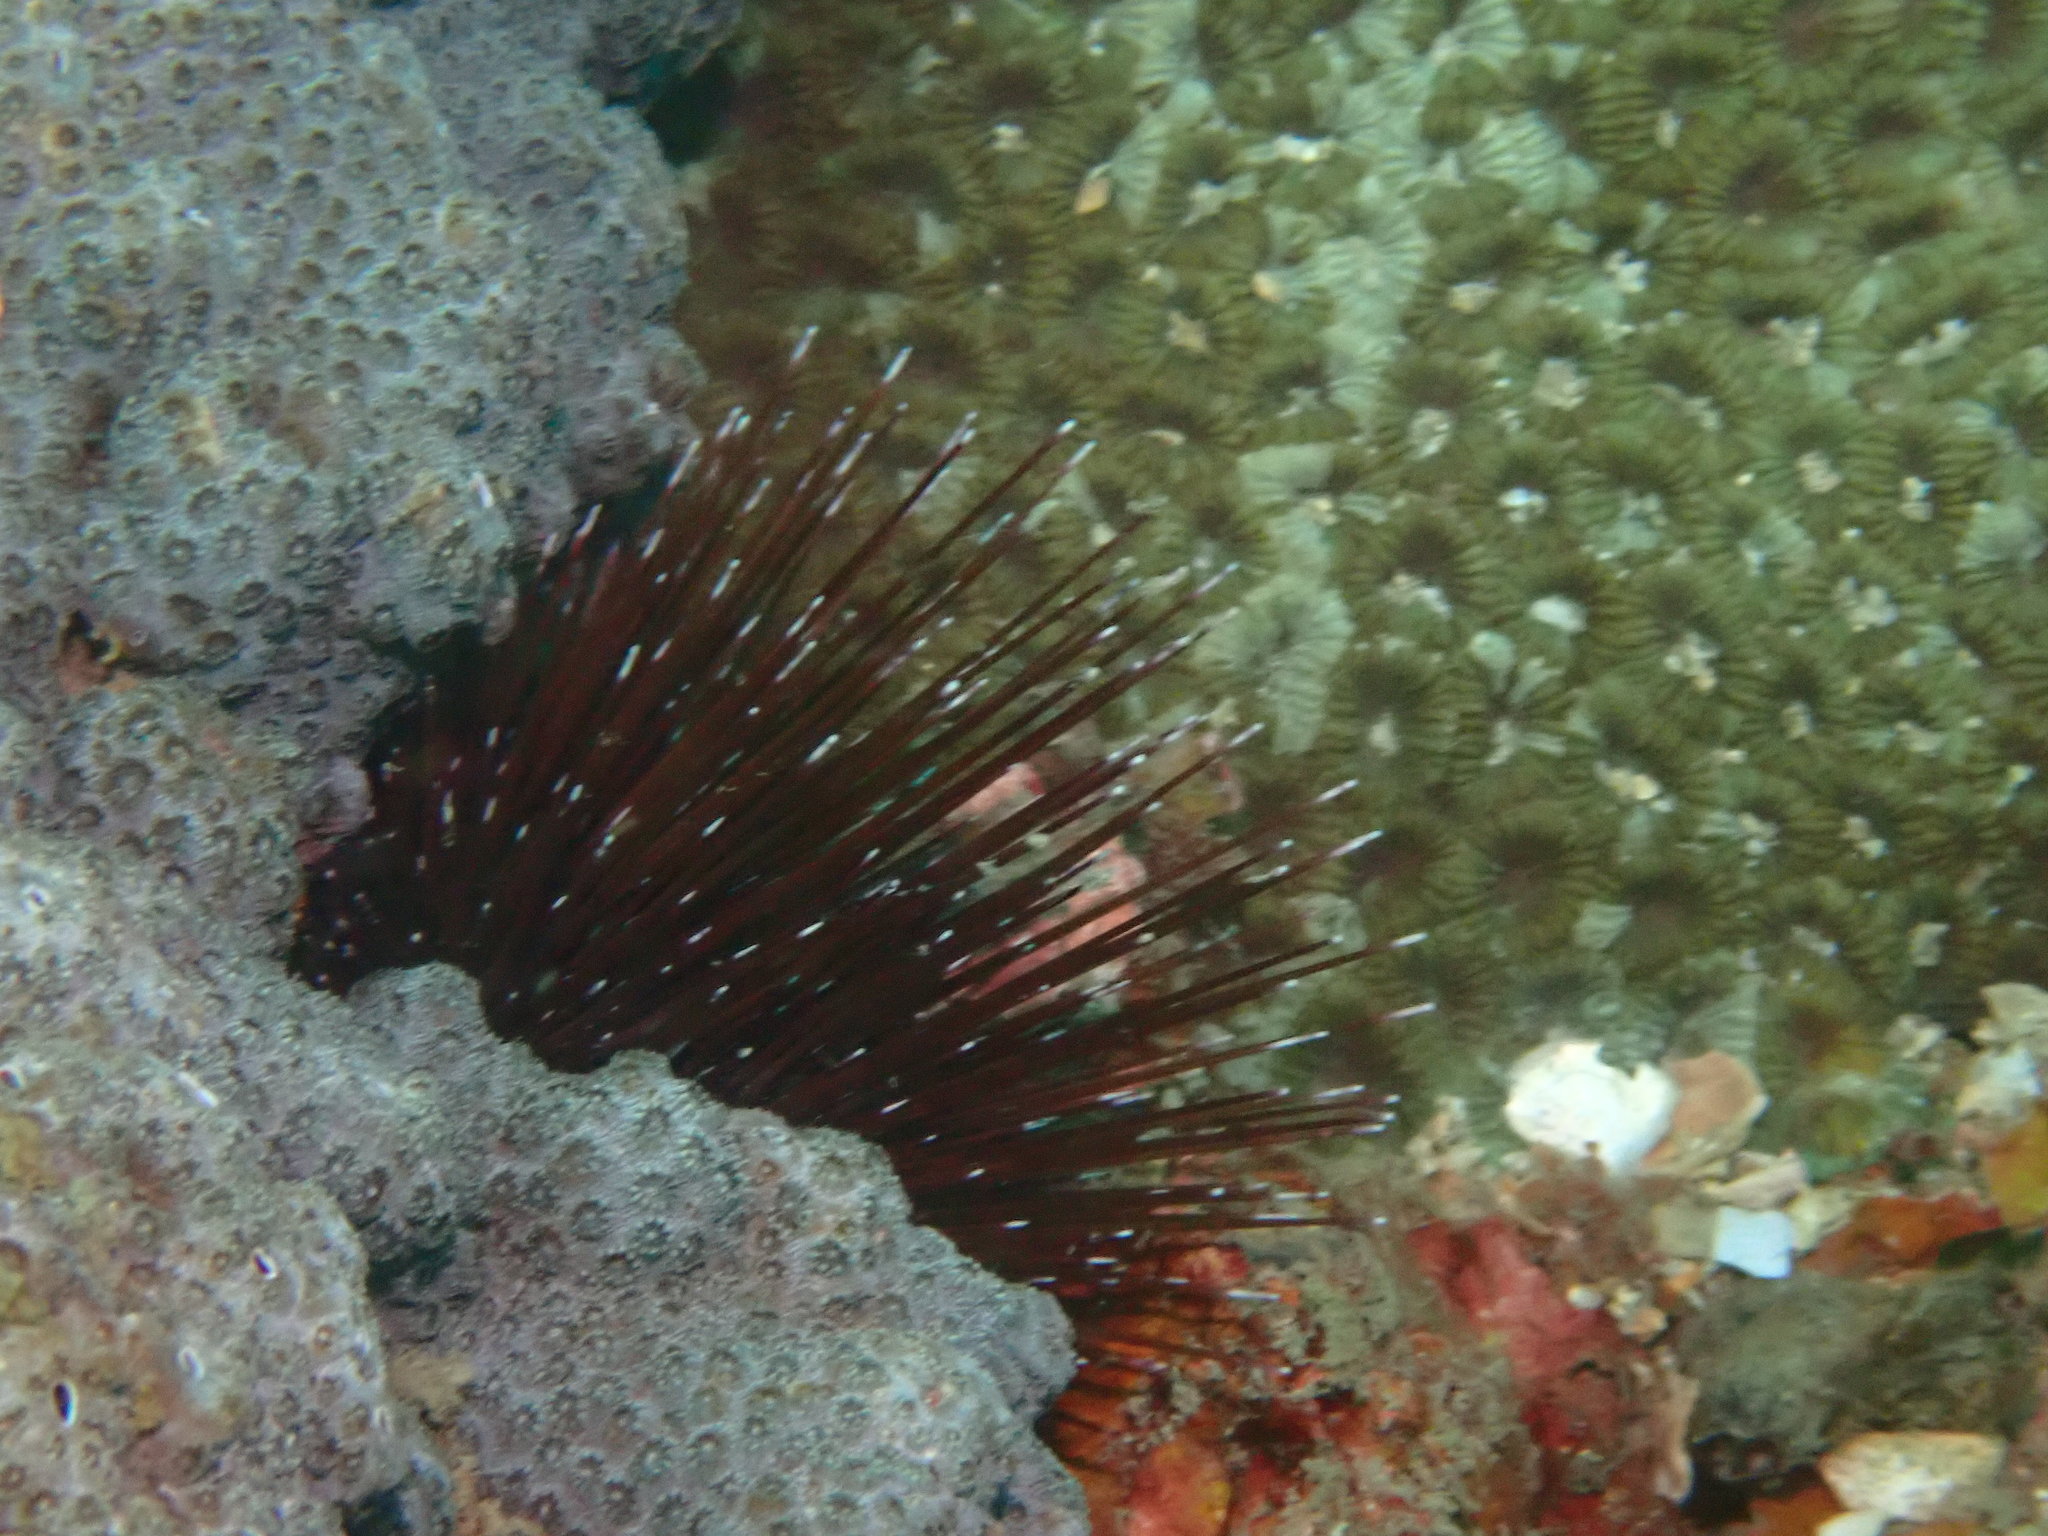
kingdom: Animalia
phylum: Echinodermata
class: Echinoidea
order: Camarodonta
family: Echinometridae
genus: Echinostrephus
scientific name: Echinostrephus aciculatus
